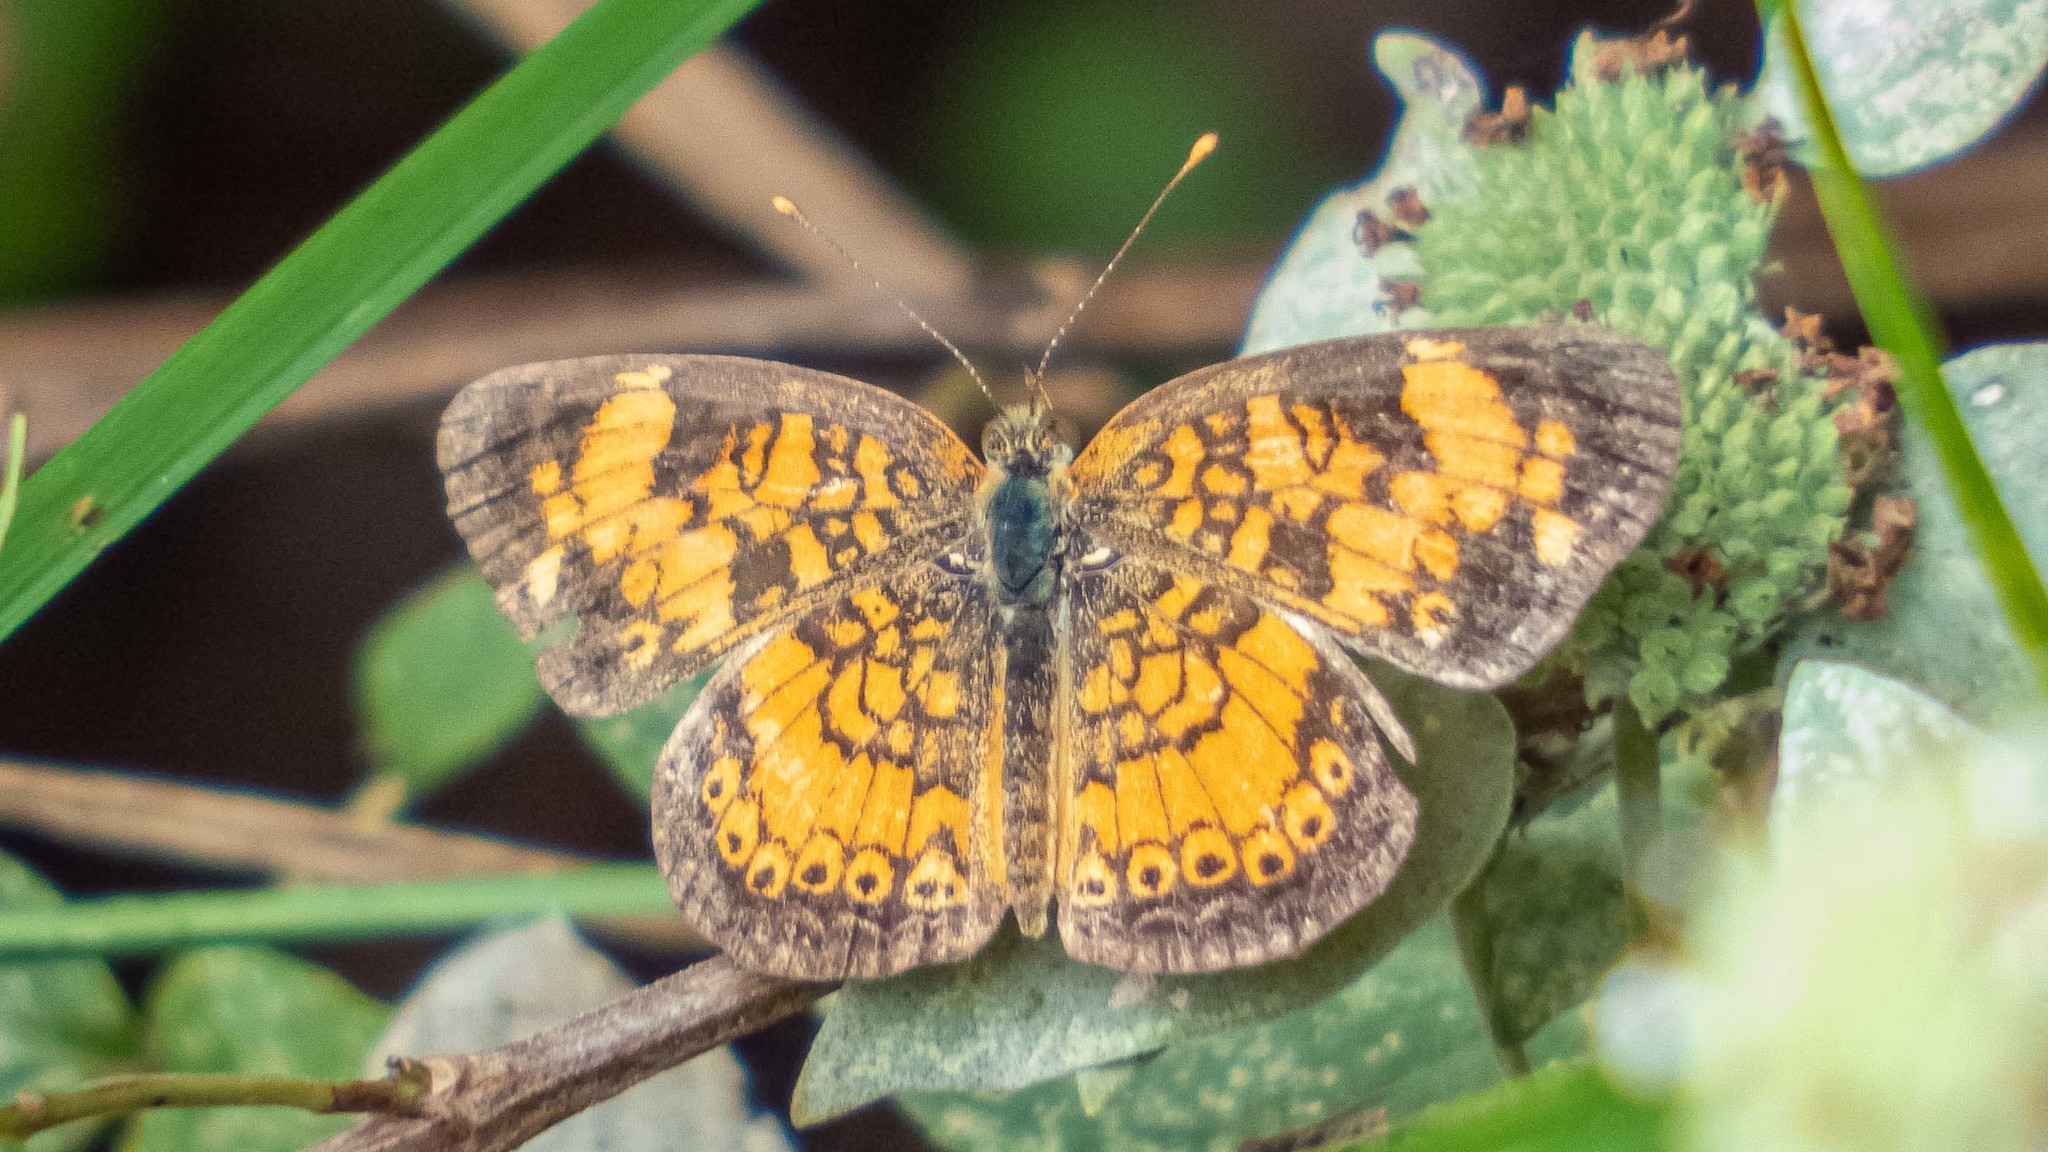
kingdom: Animalia
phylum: Arthropoda
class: Insecta
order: Lepidoptera
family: Nymphalidae
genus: Phyciodes
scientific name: Phyciodes tharos
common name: Pearl crescent
